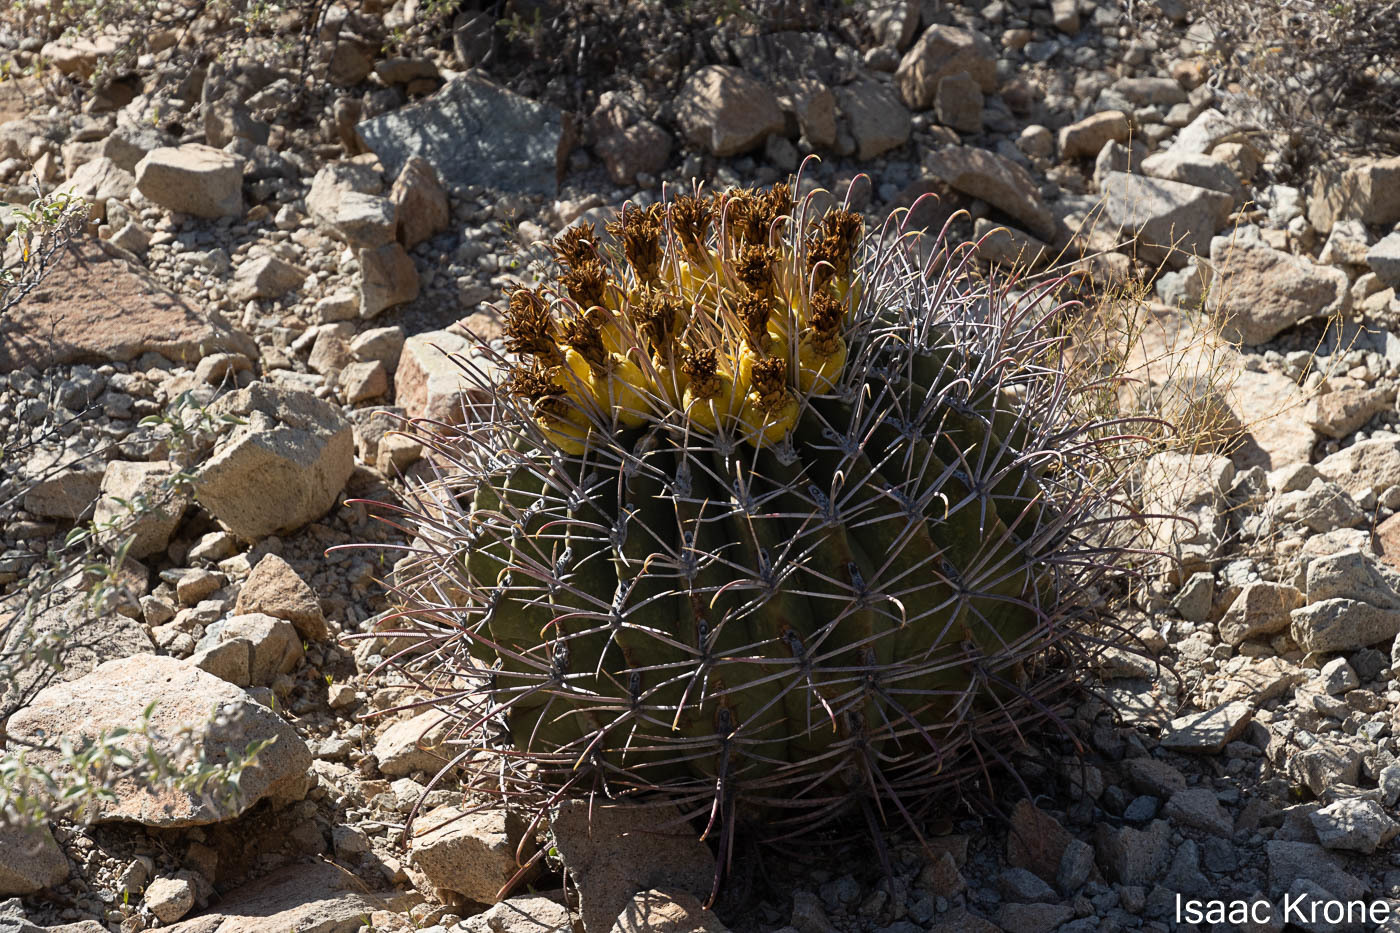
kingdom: Plantae
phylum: Tracheophyta
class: Magnoliopsida
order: Caryophyllales
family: Cactaceae
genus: Ferocactus
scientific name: Ferocactus emoryi
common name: Emory's barrel cactus
